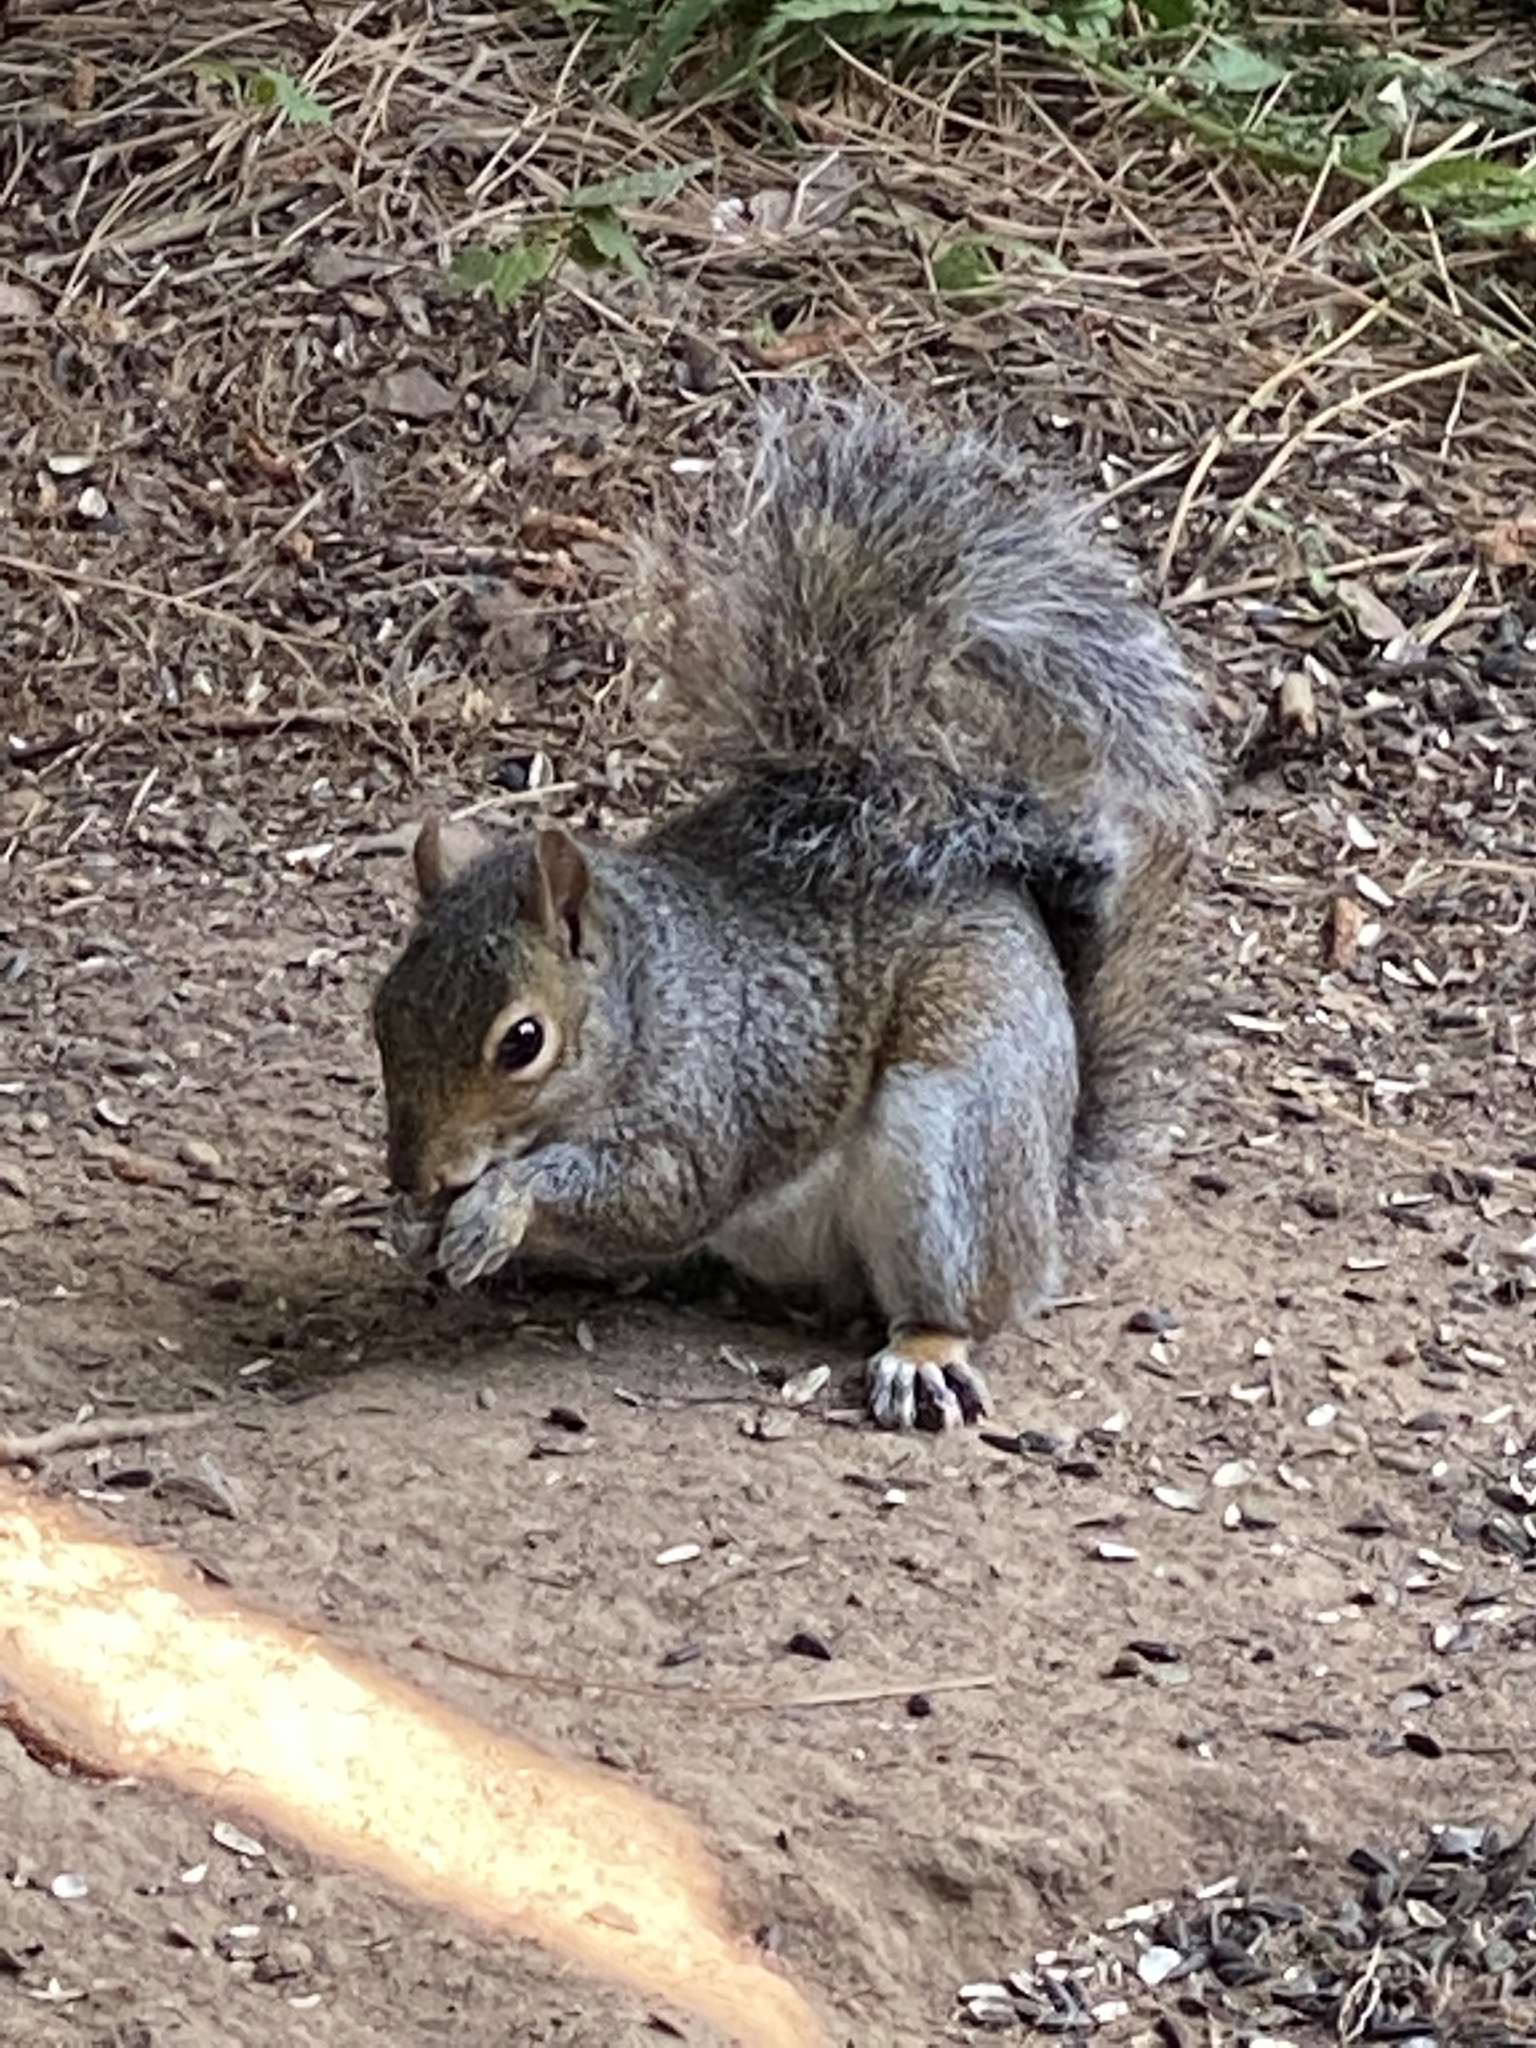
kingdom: Animalia
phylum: Chordata
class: Mammalia
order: Rodentia
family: Sciuridae
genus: Sciurus
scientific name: Sciurus carolinensis
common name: Eastern gray squirrel
